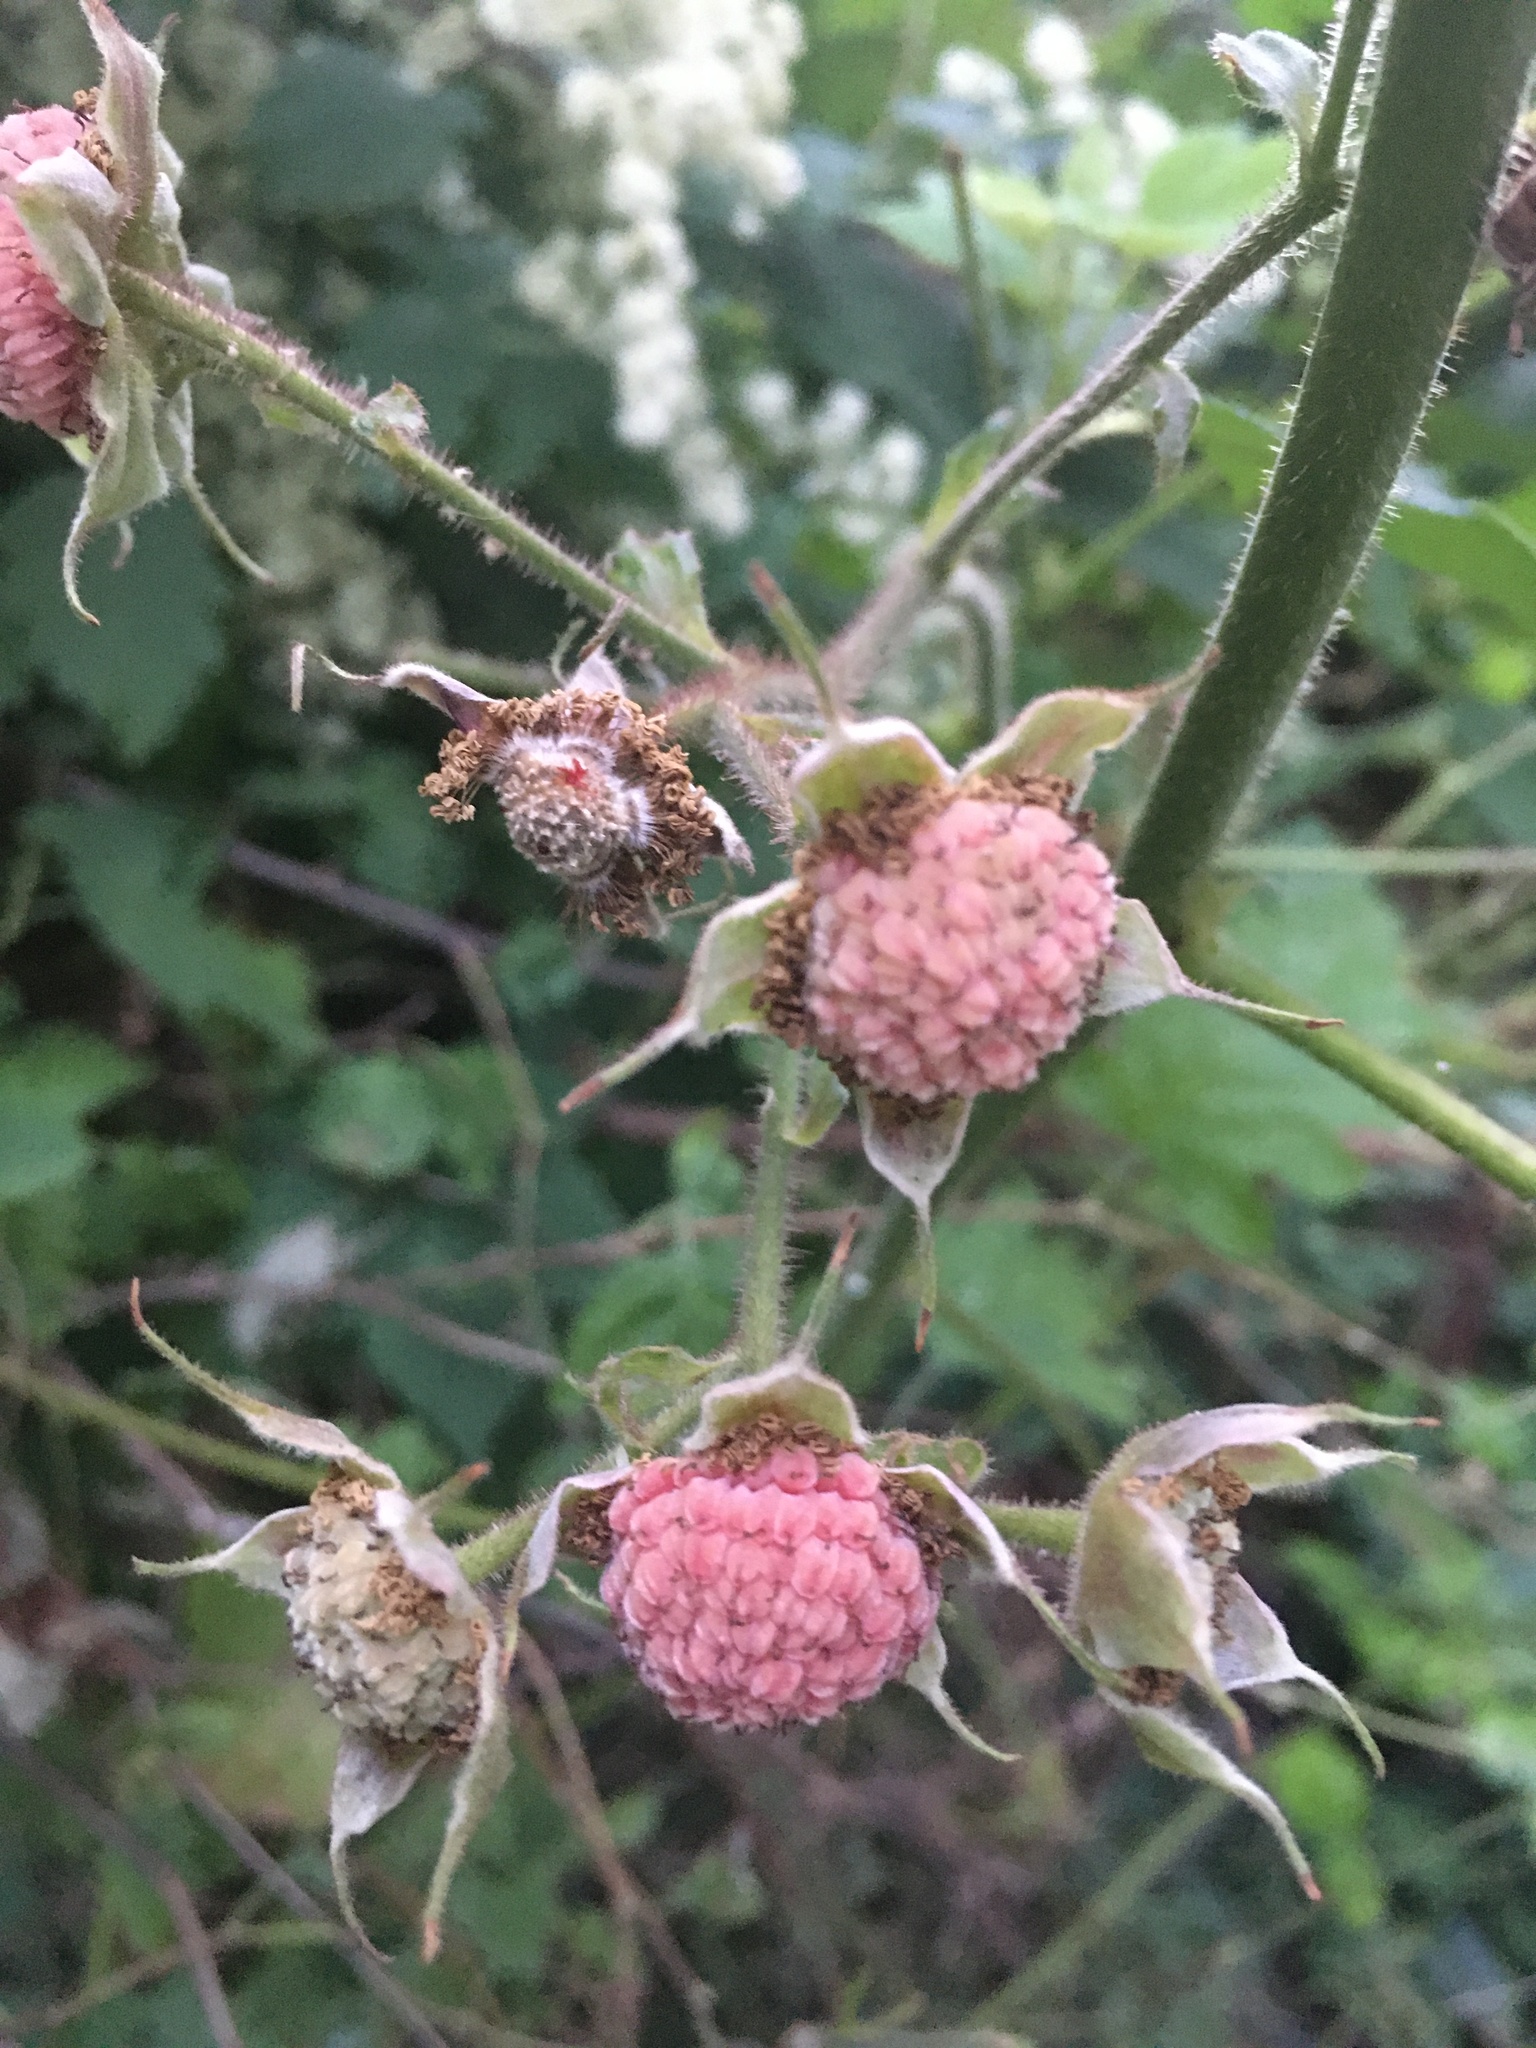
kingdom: Plantae
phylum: Tracheophyta
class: Magnoliopsida
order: Rosales
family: Rosaceae
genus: Rubus
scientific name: Rubus parviflorus
